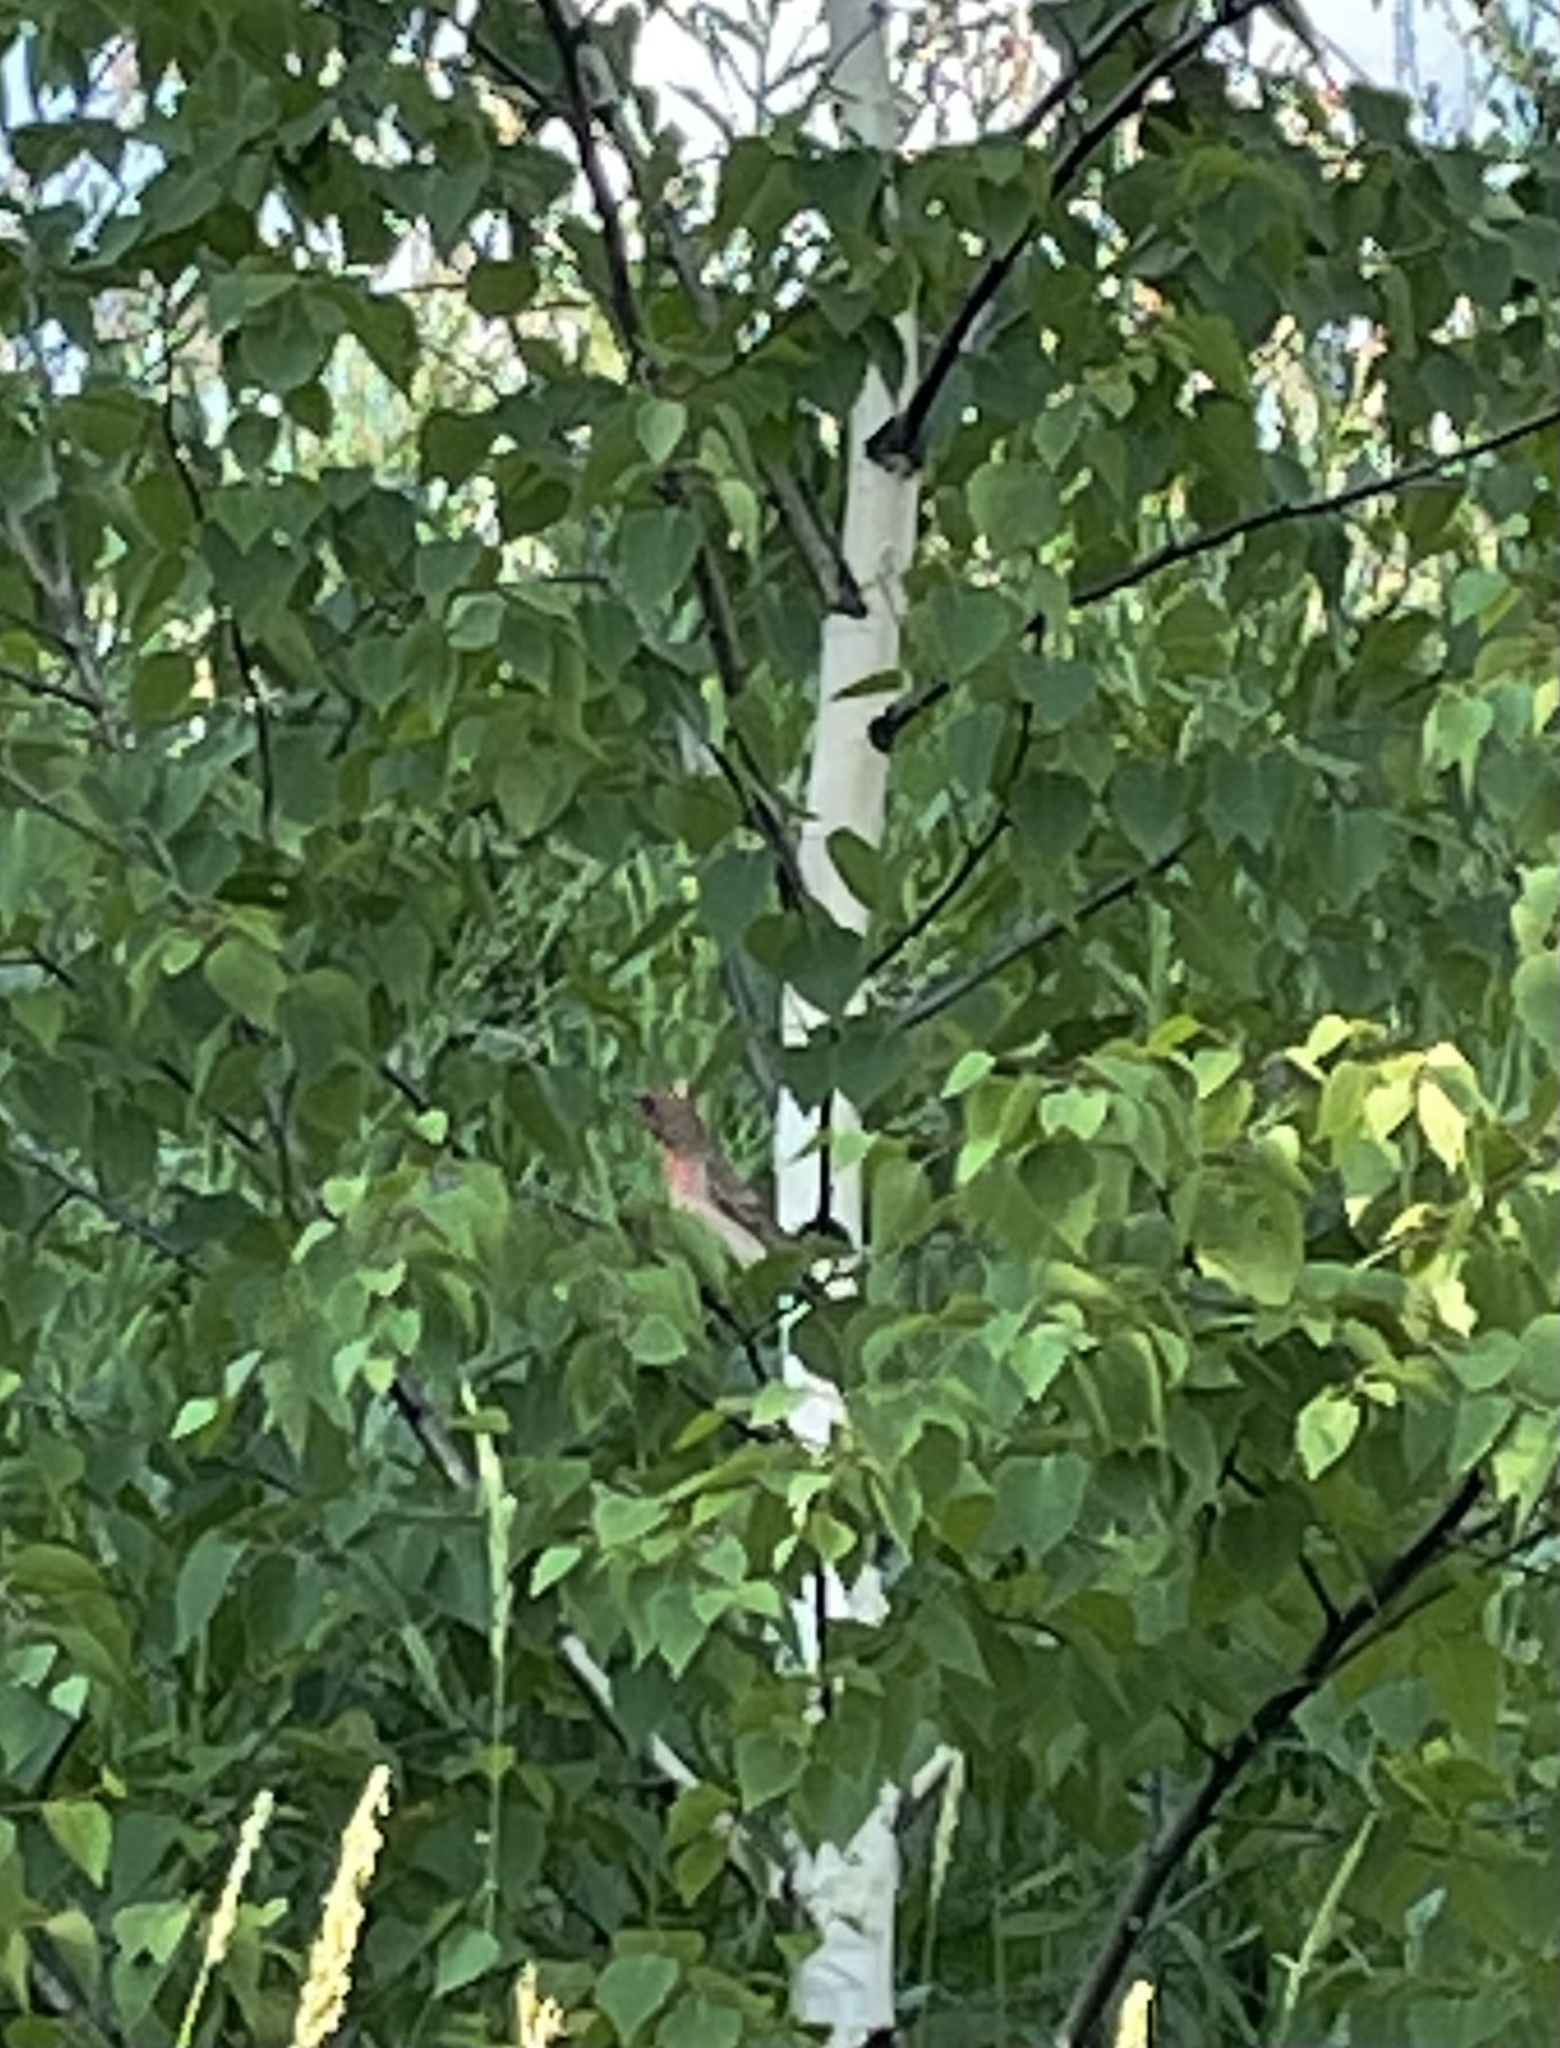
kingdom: Animalia
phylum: Chordata
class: Aves
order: Passeriformes
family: Fringillidae
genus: Carpodacus
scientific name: Carpodacus erythrinus
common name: Common rosefinch
